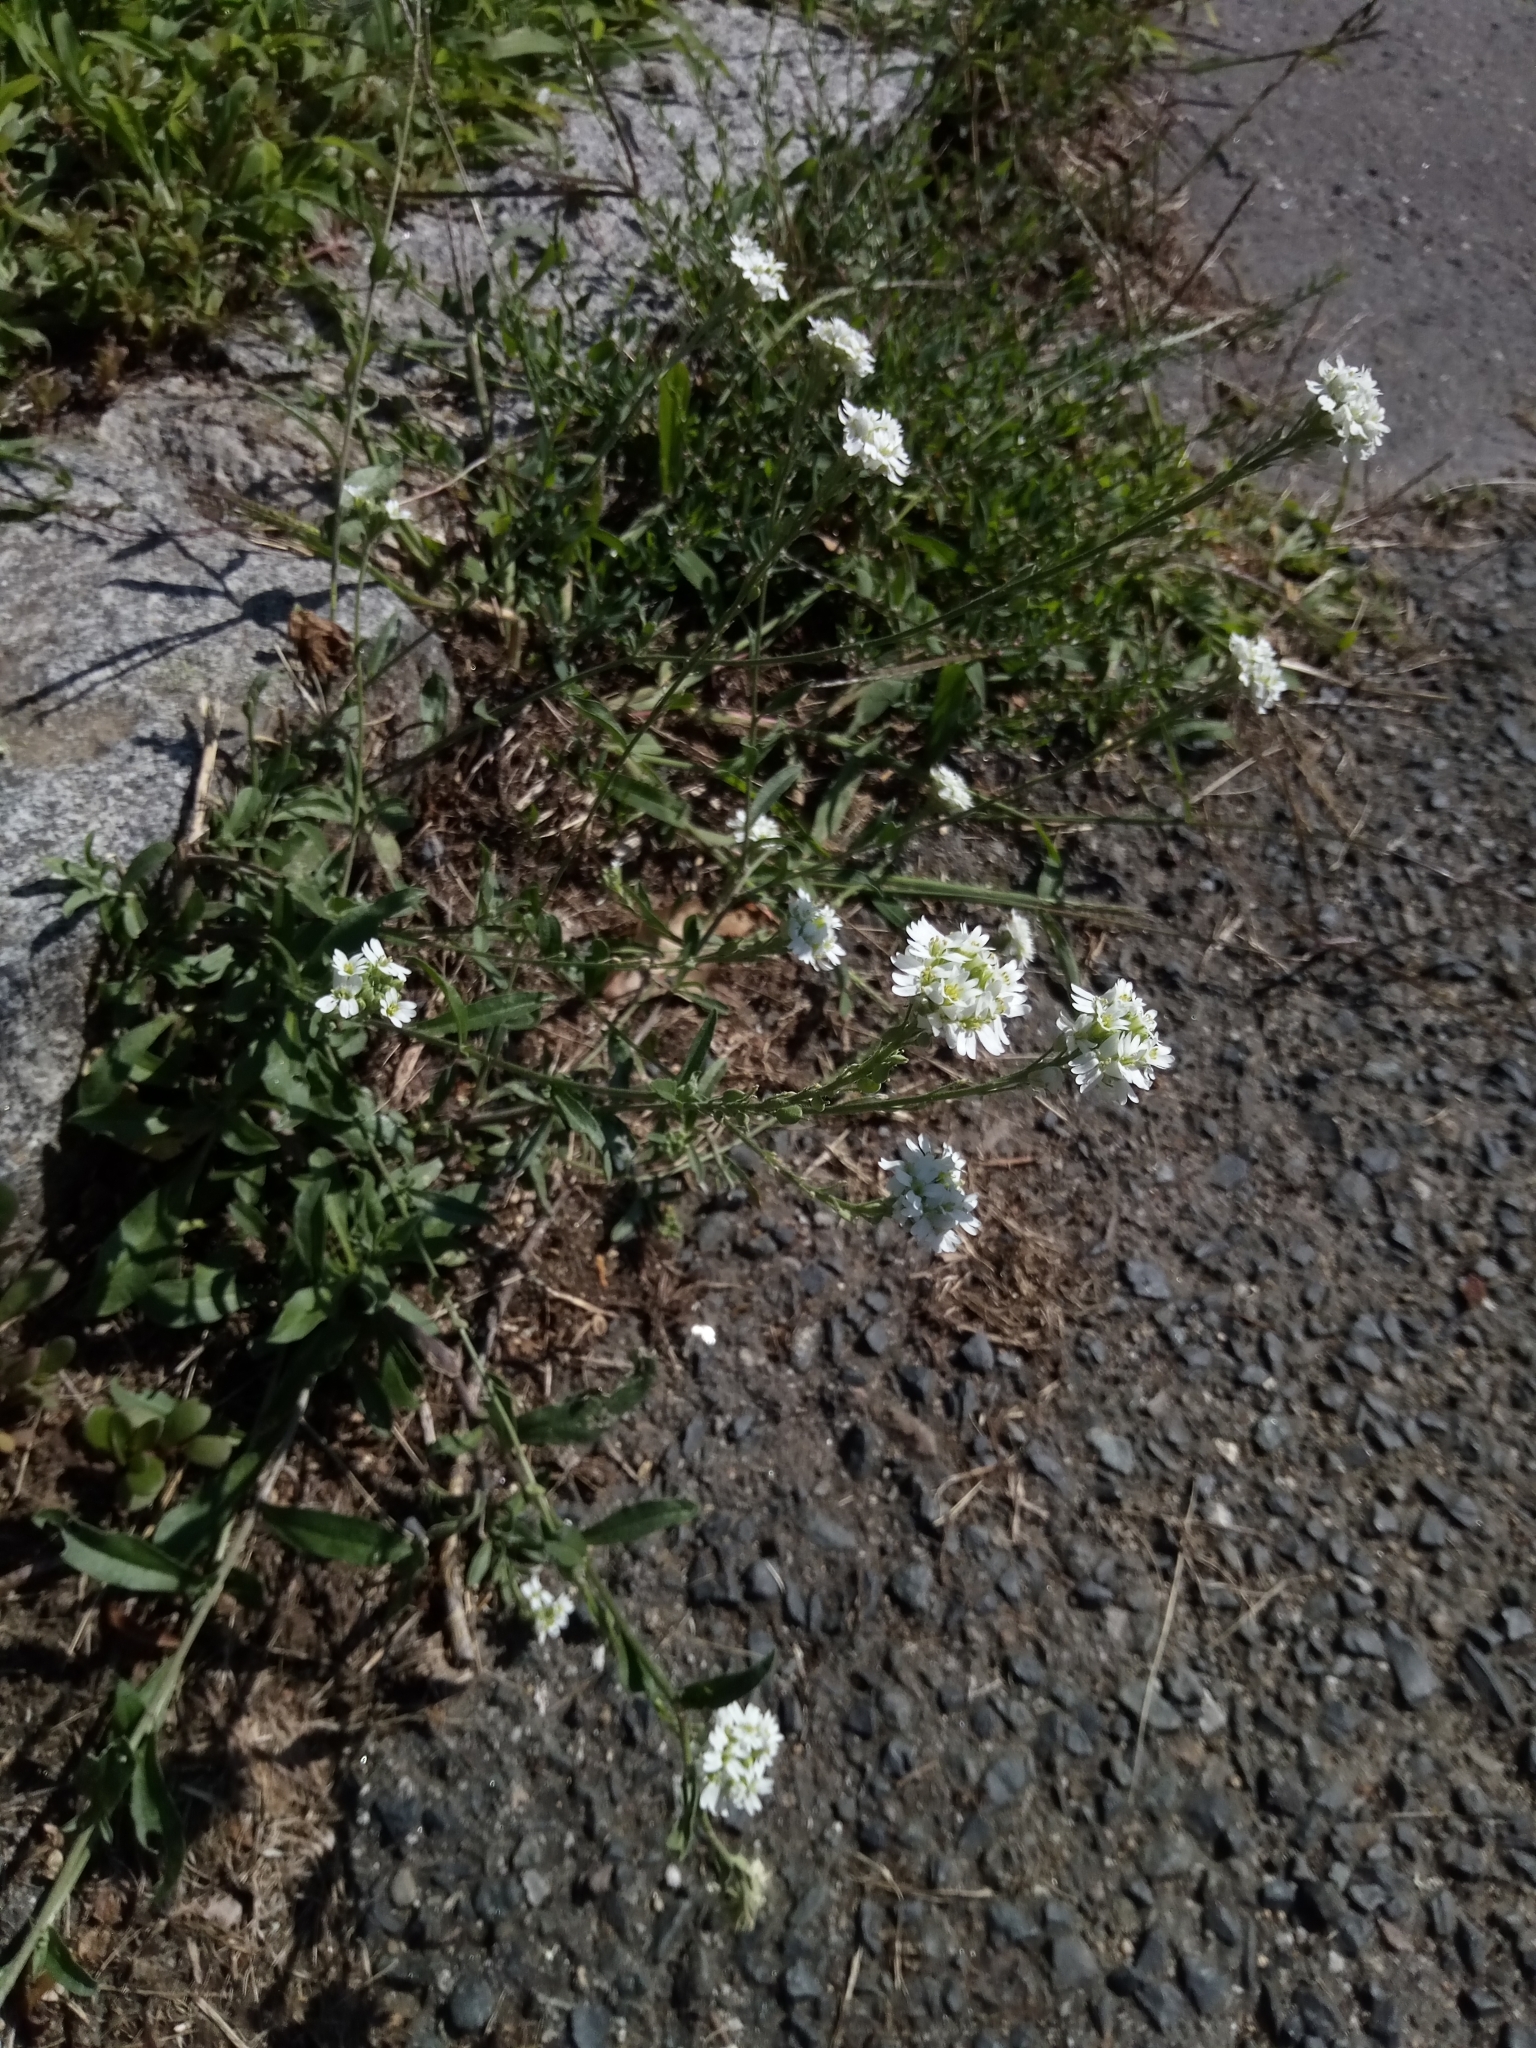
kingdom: Plantae
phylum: Tracheophyta
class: Magnoliopsida
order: Brassicales
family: Brassicaceae
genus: Berteroa
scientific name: Berteroa incana
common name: Hoary alison
